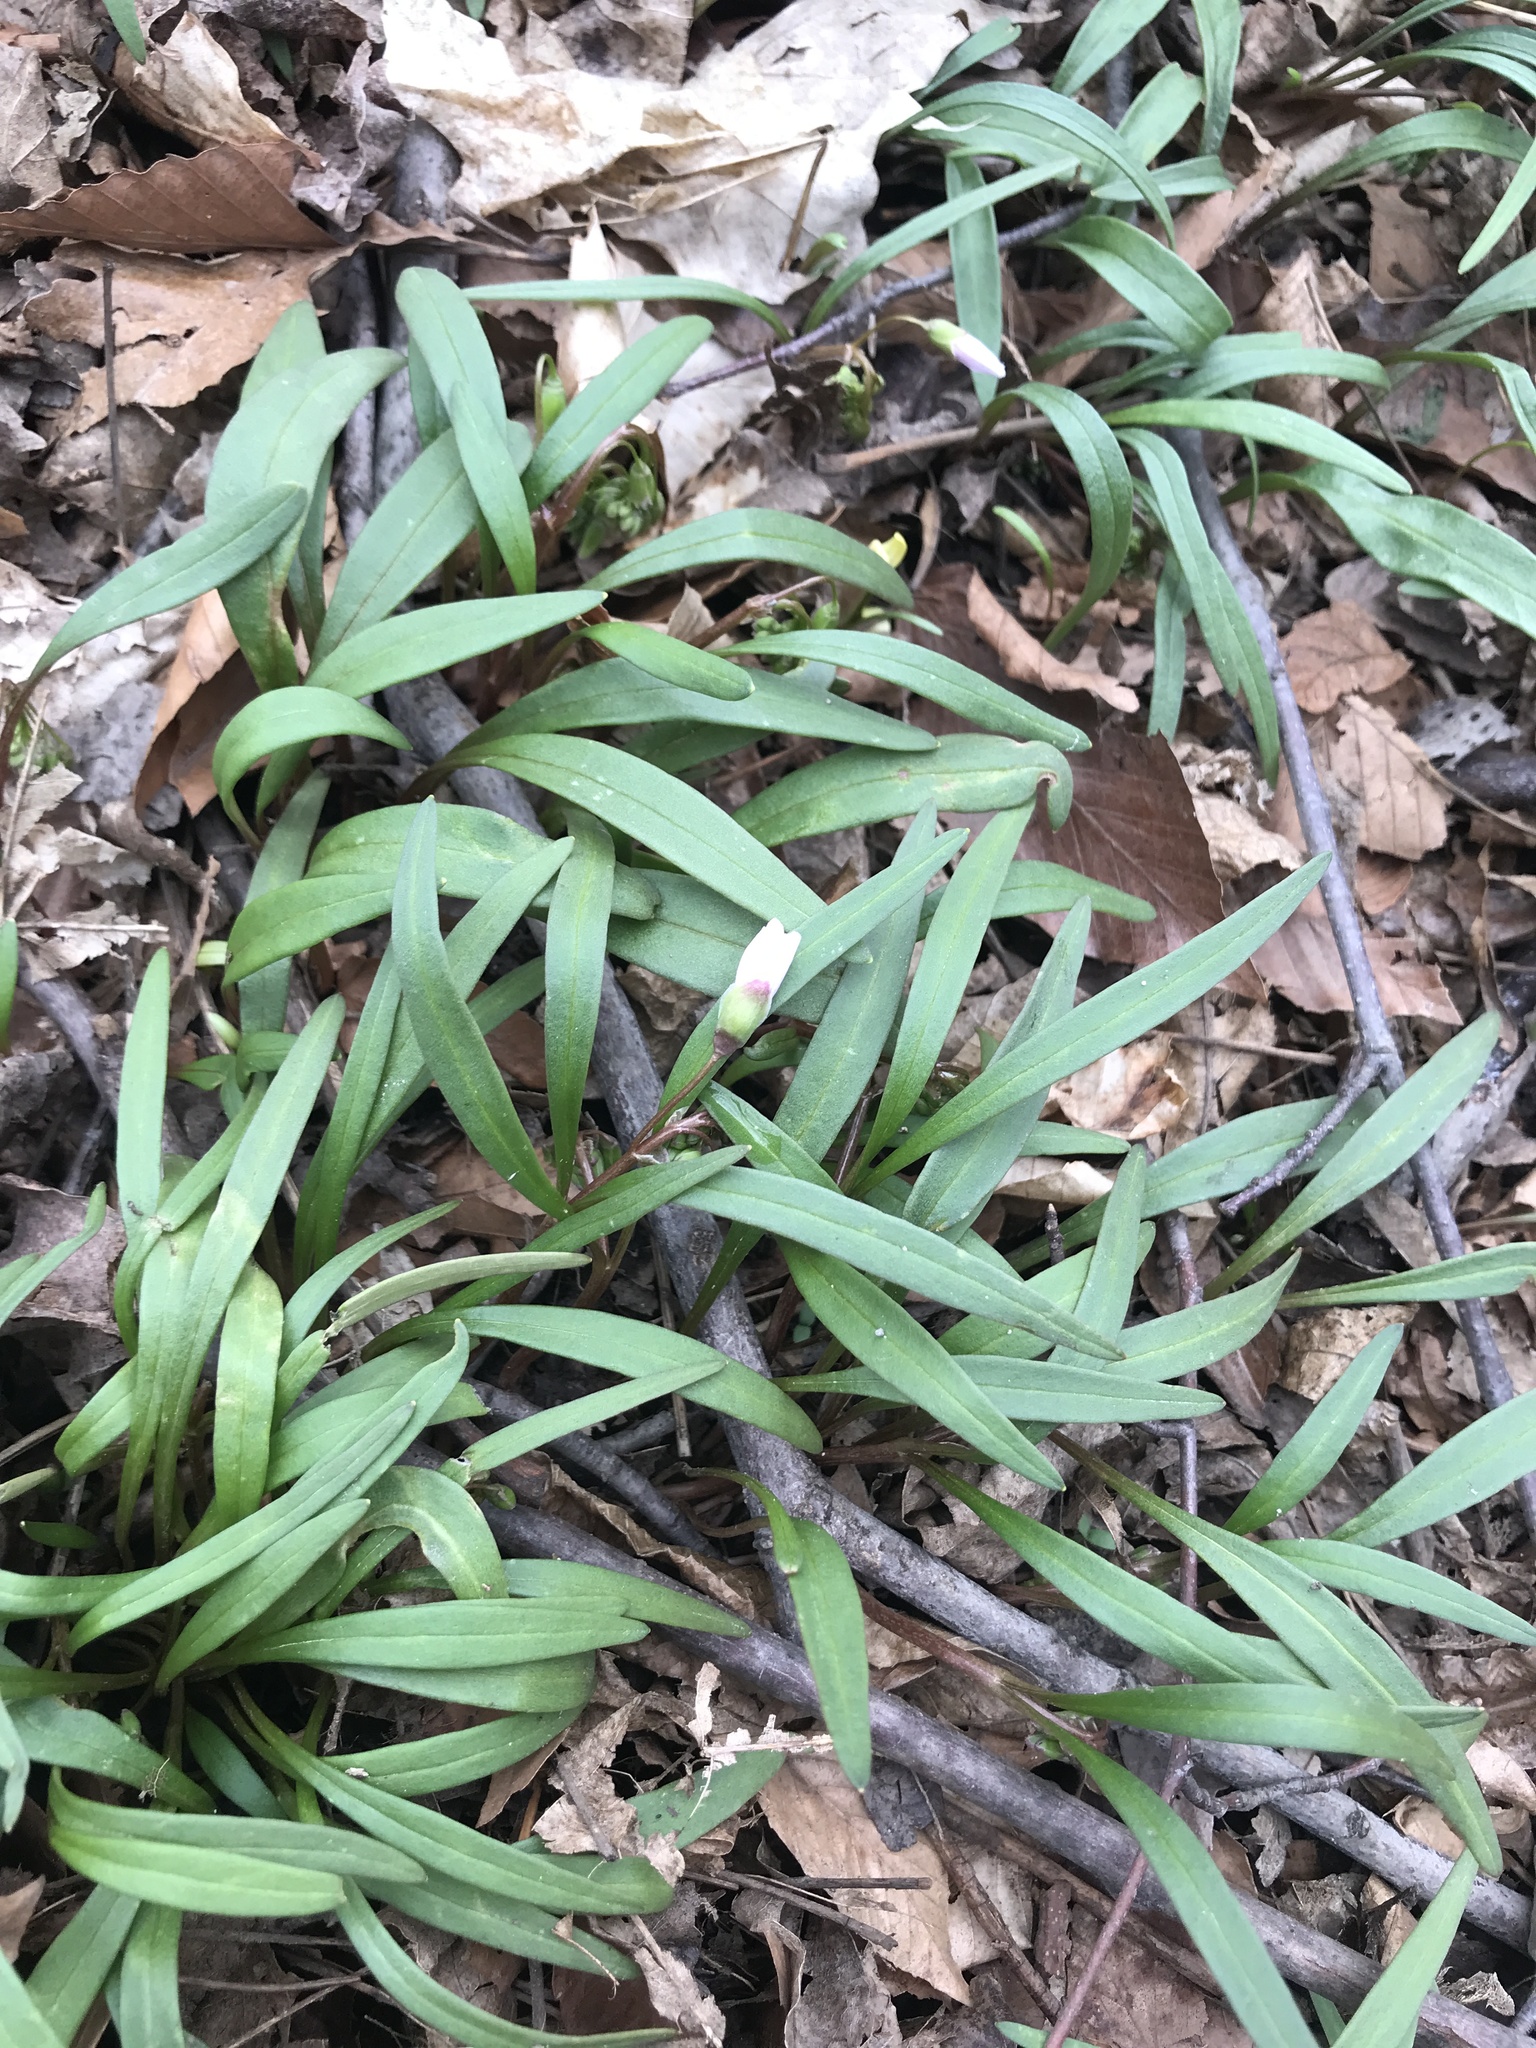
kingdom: Plantae
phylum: Tracheophyta
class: Magnoliopsida
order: Caryophyllales
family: Montiaceae
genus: Claytonia
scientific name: Claytonia virginica
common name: Virginia springbeauty
